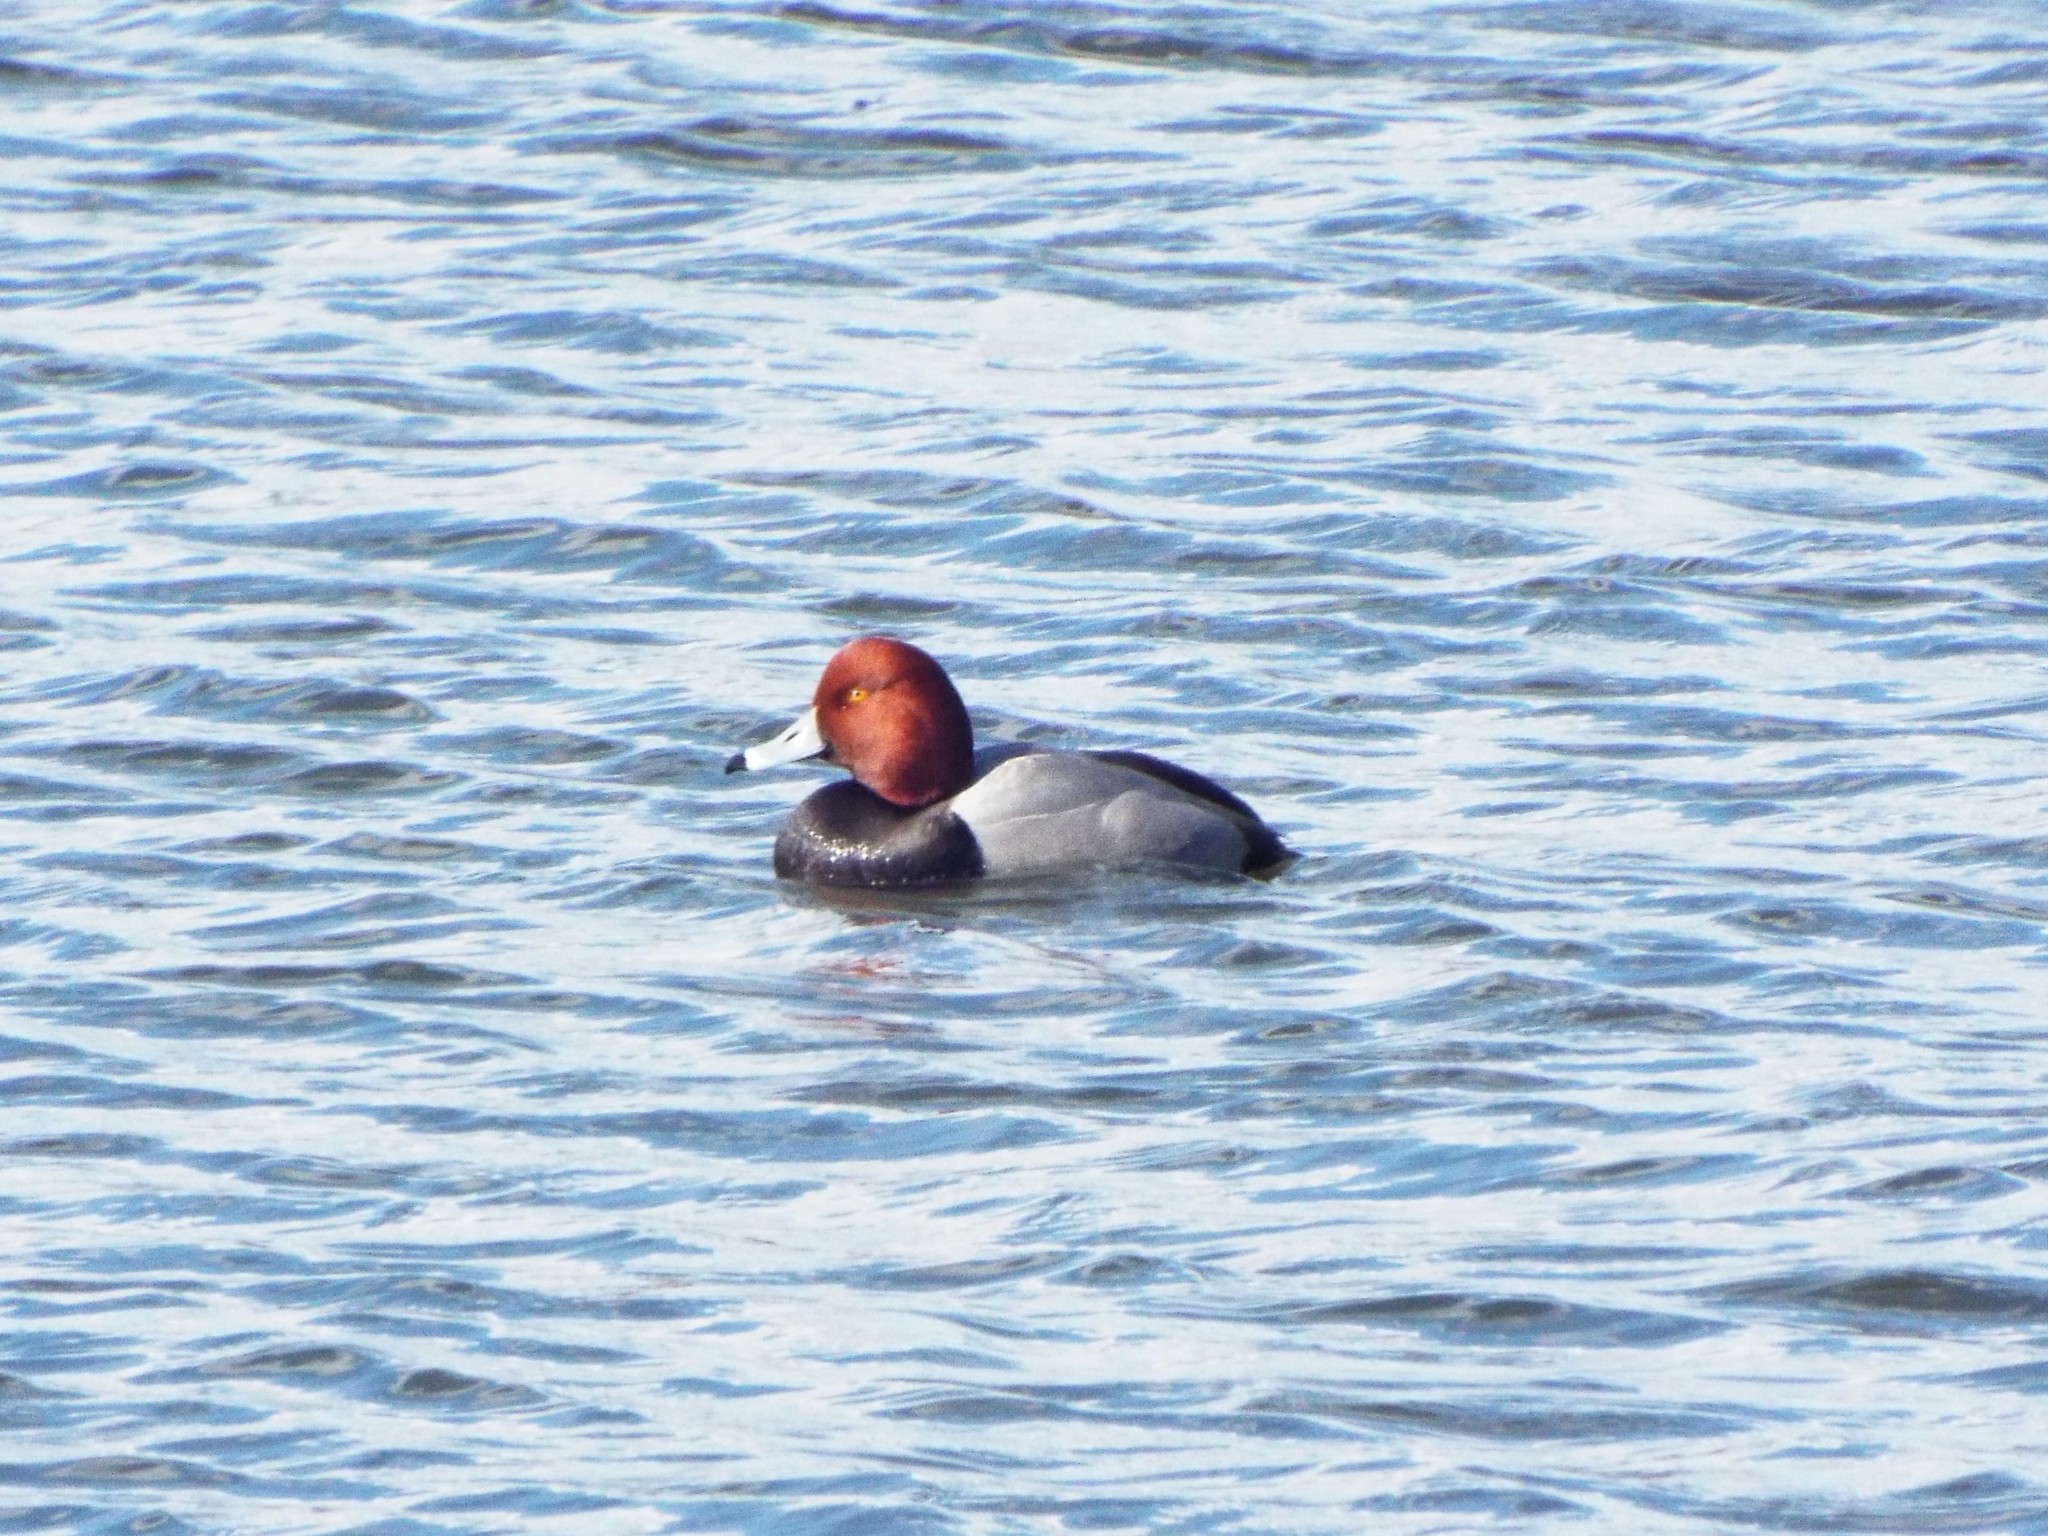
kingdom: Animalia
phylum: Chordata
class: Aves
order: Anseriformes
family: Anatidae
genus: Aythya
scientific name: Aythya americana
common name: Redhead
